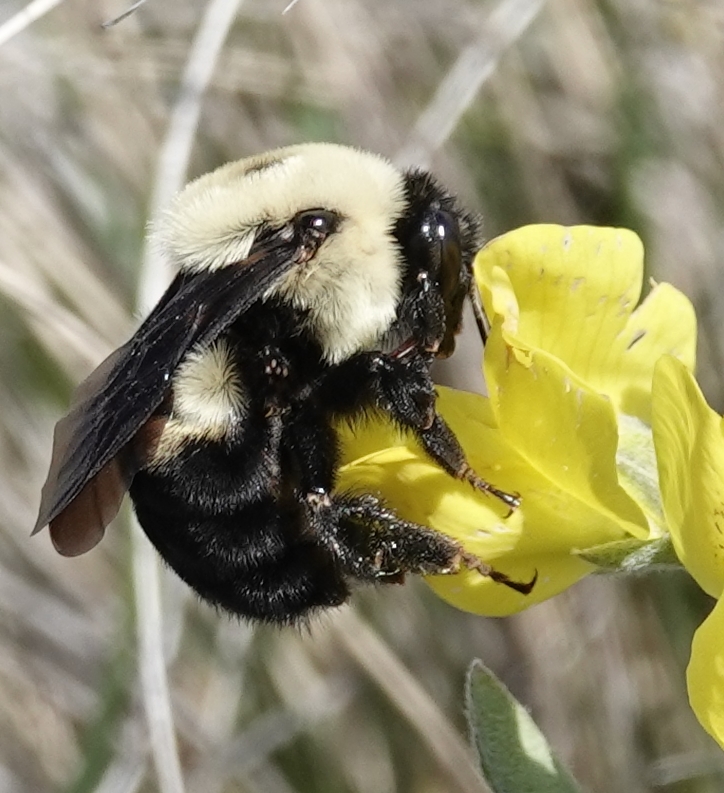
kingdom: Animalia
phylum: Arthropoda
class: Insecta
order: Hymenoptera
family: Apidae
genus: Bombus
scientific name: Bombus griseocollis
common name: Brown-belted bumble bee
